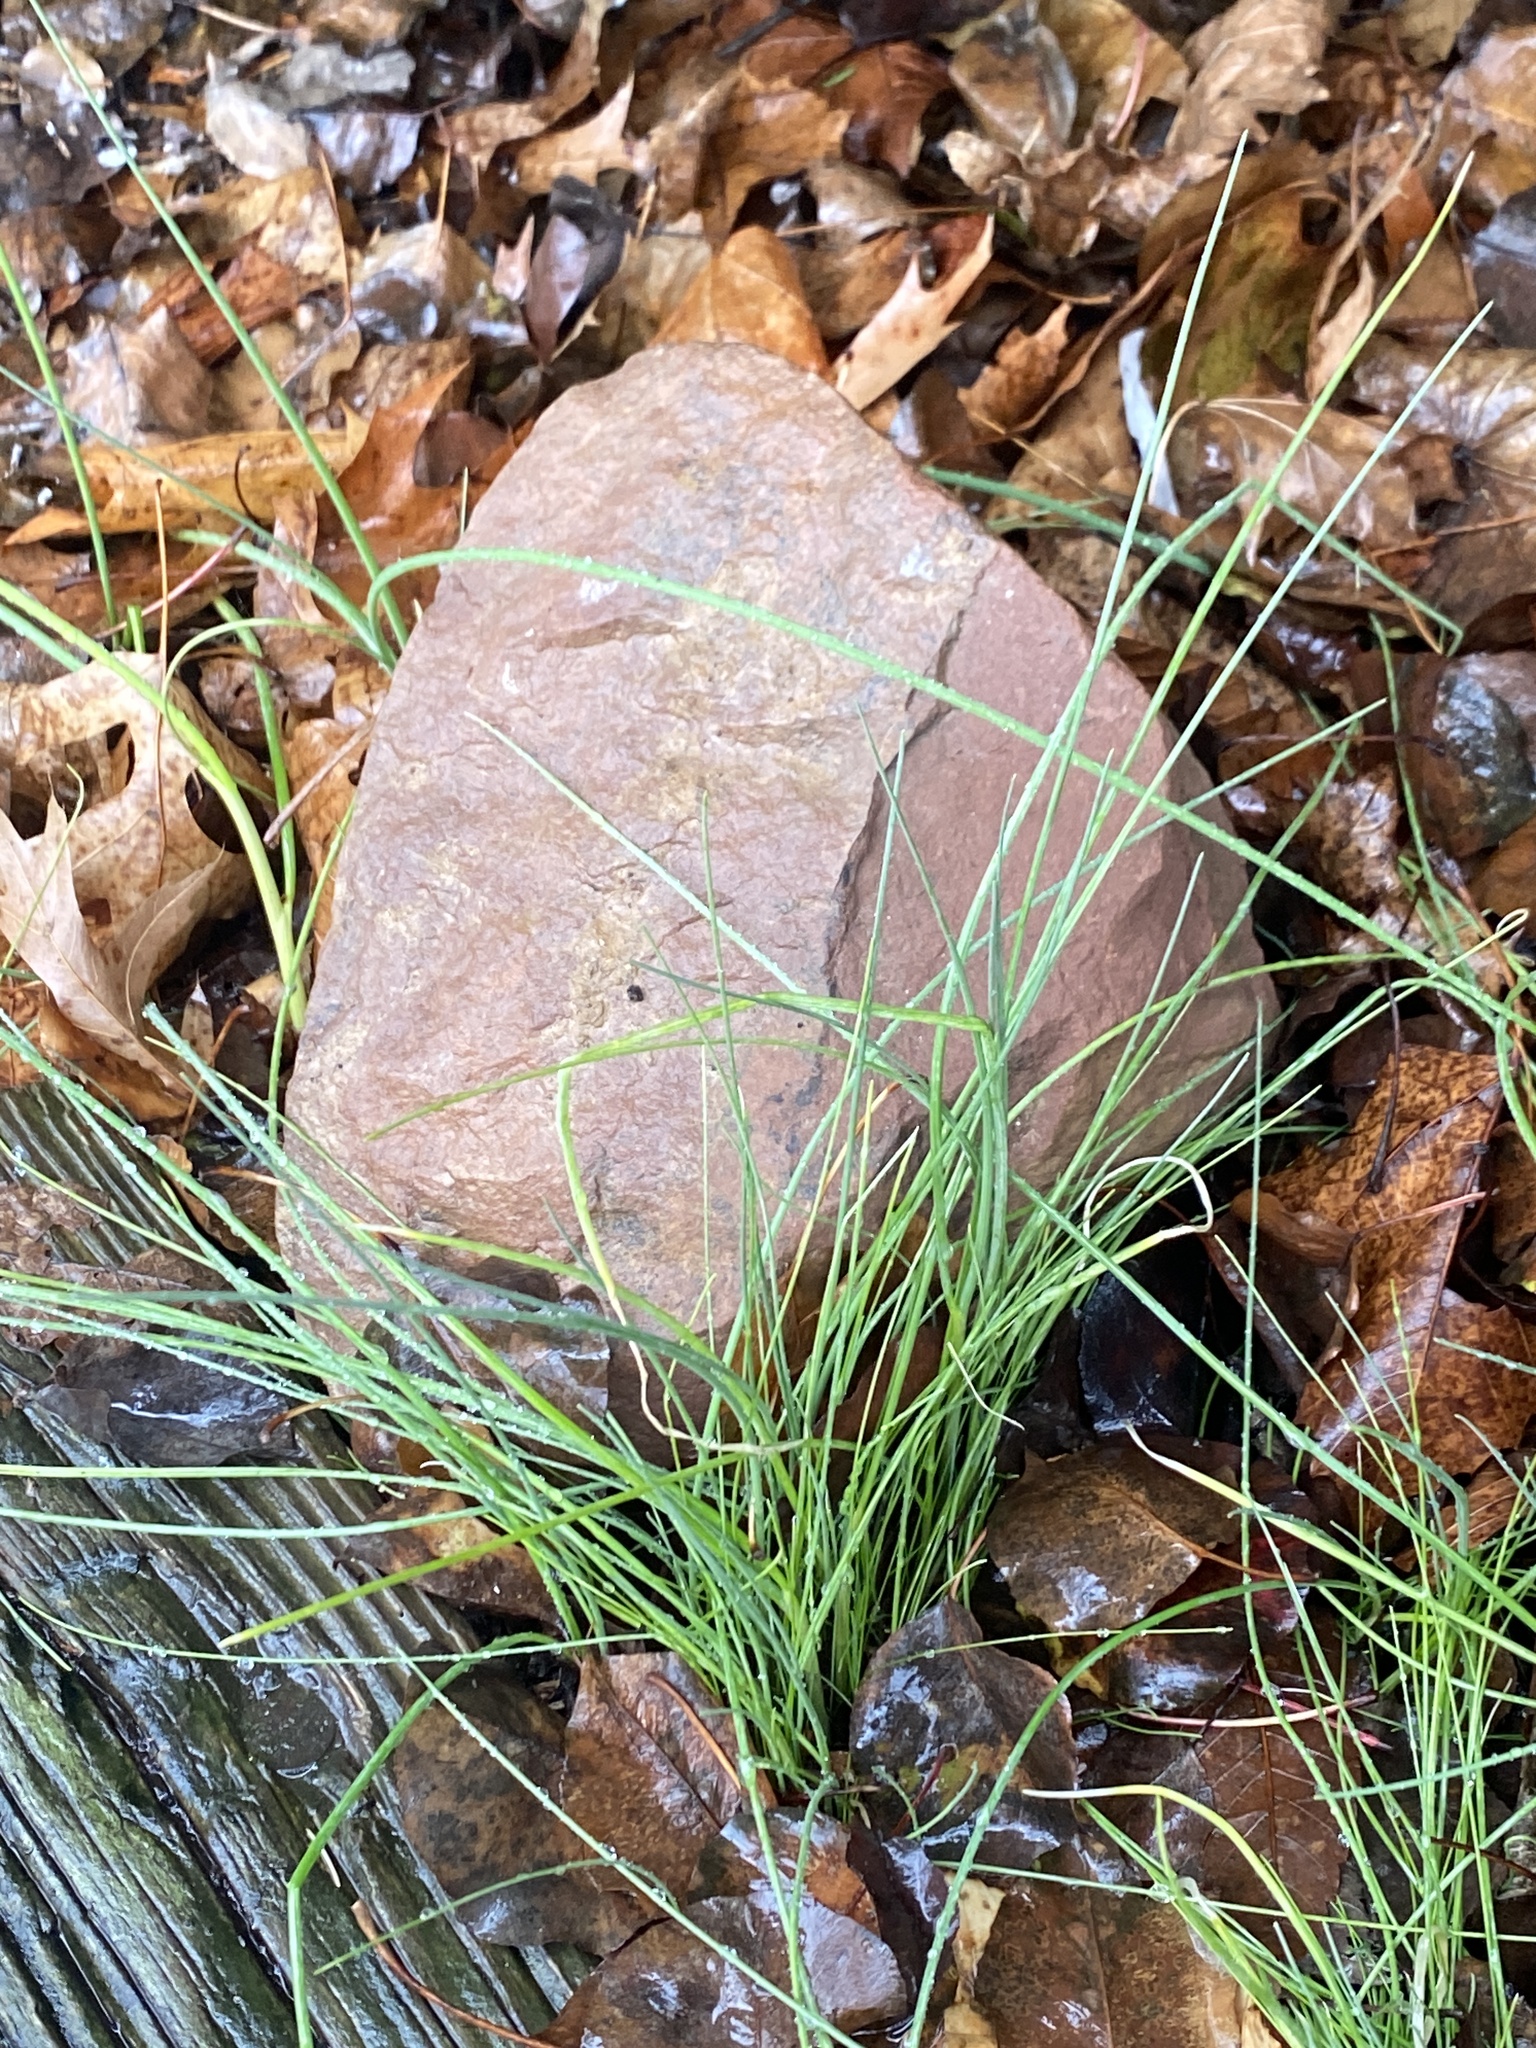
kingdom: Plantae
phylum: Tracheophyta
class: Liliopsida
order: Asparagales
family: Amaryllidaceae
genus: Allium
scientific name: Allium vineale
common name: Crow garlic
